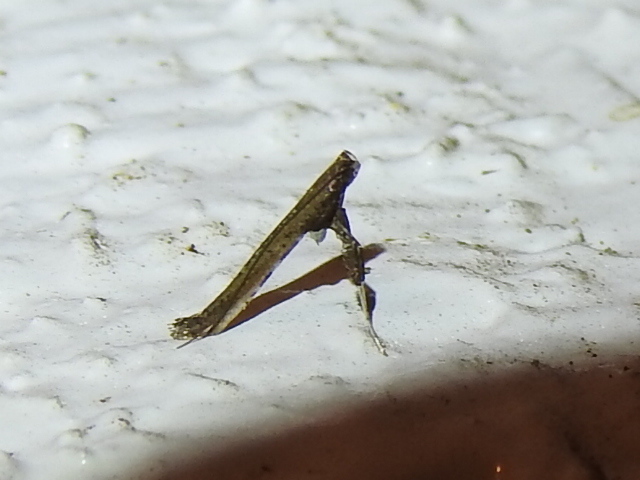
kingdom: Animalia
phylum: Arthropoda
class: Insecta
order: Lepidoptera
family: Gracillariidae
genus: Caloptilia
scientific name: Caloptilia rhoifoliella
